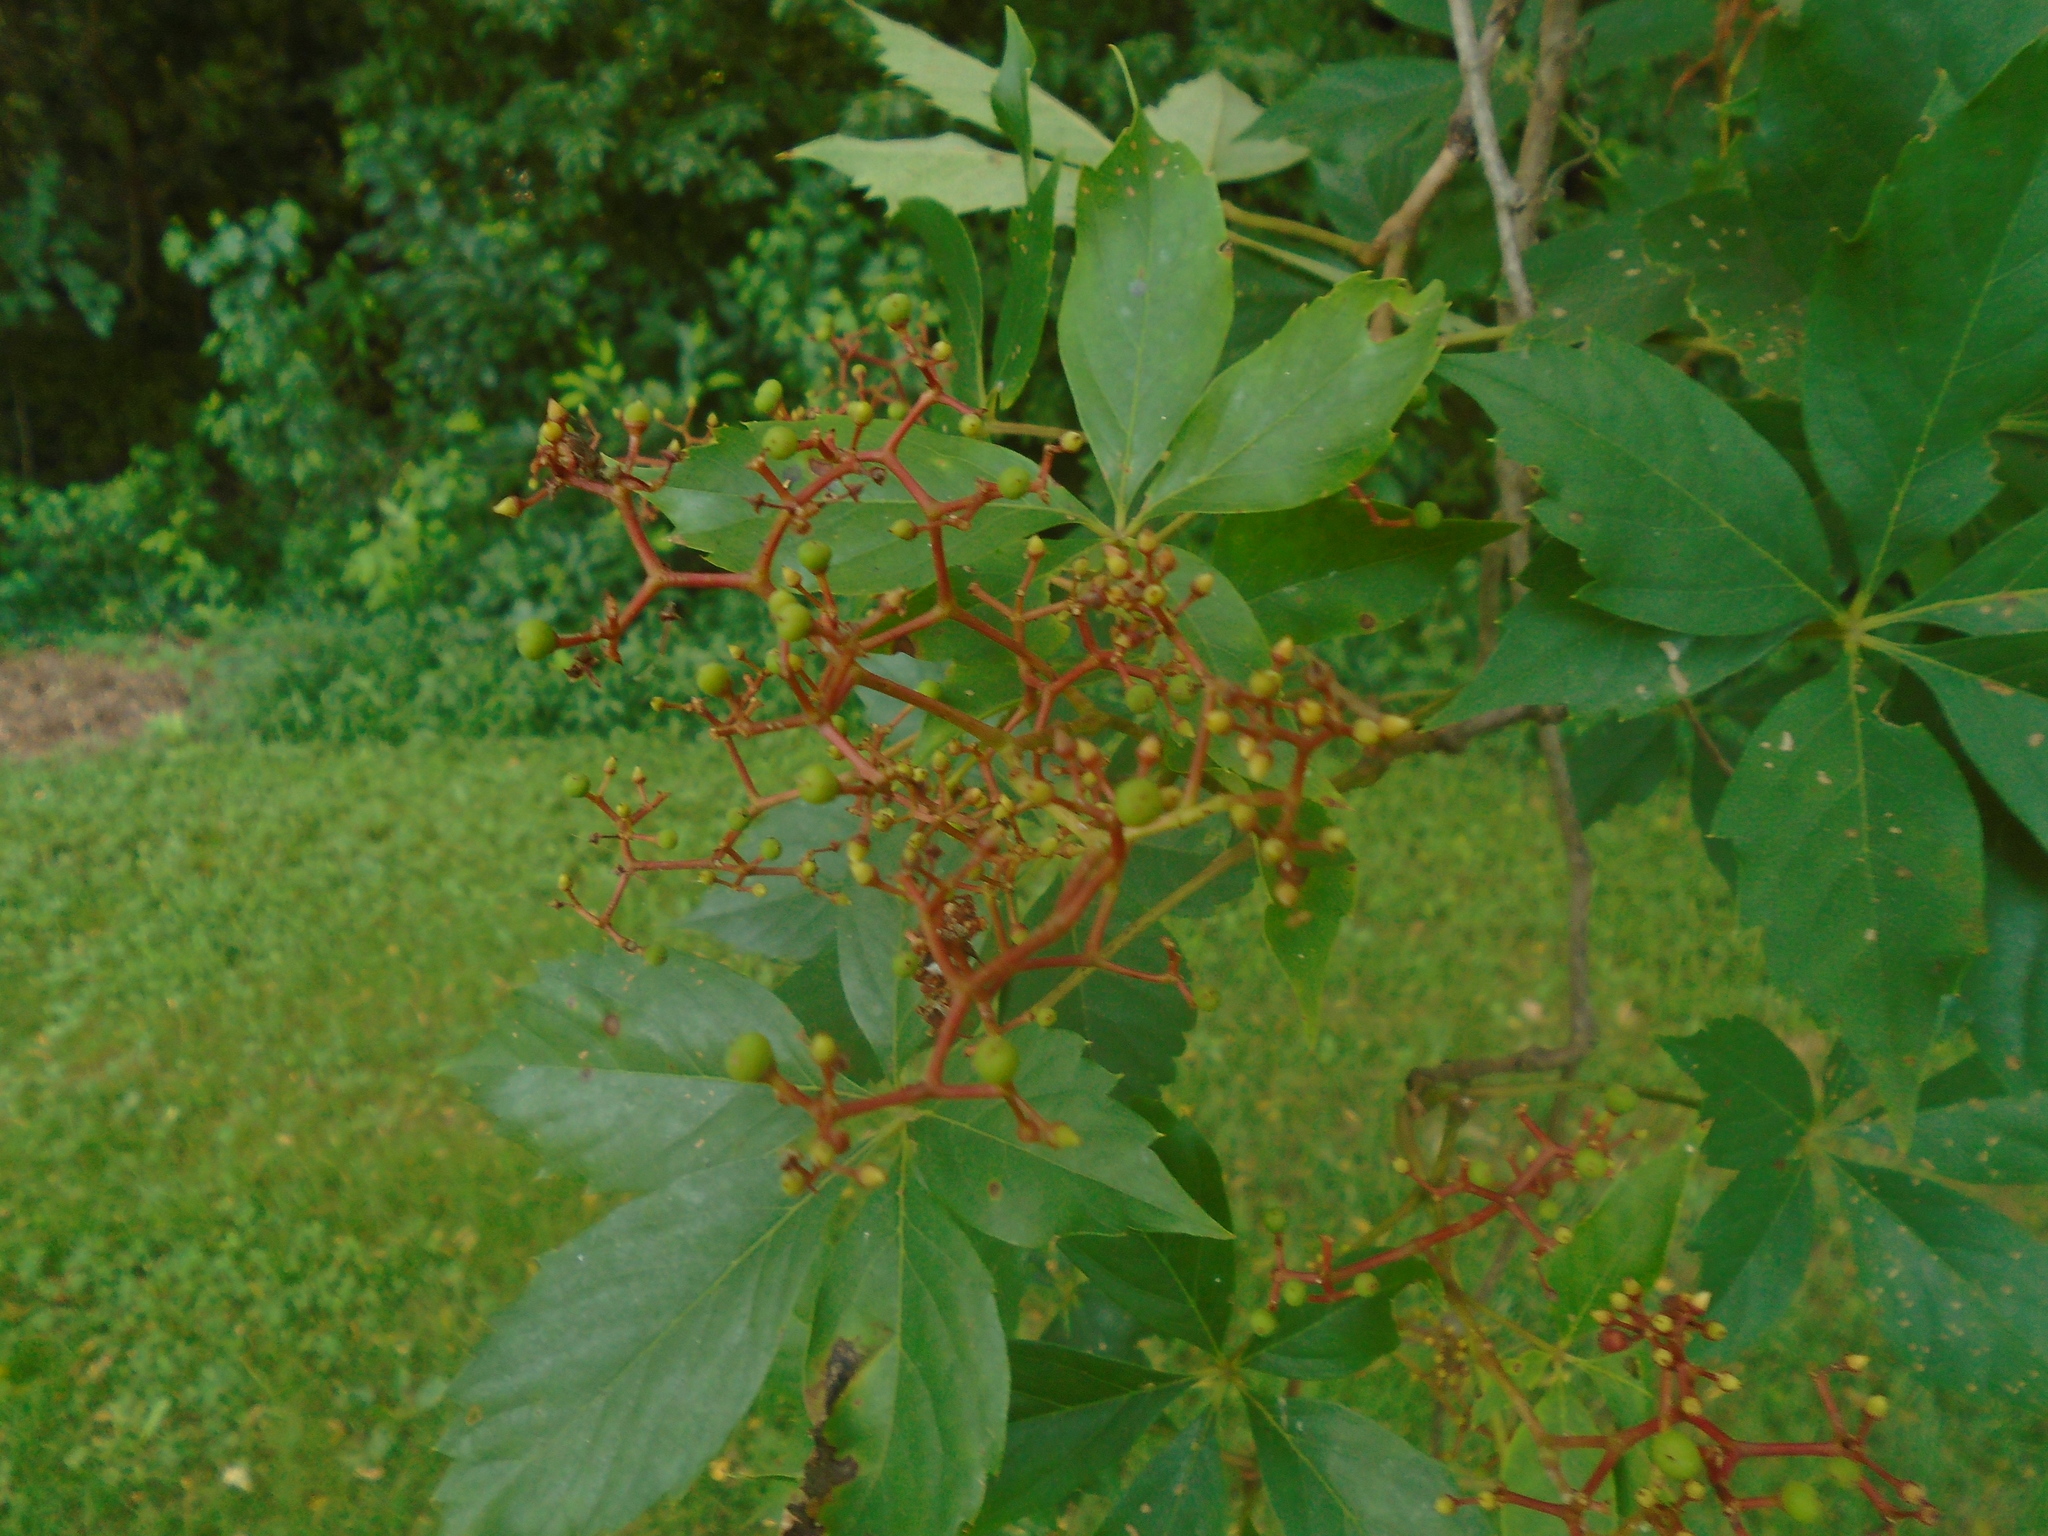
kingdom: Plantae
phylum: Tracheophyta
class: Magnoliopsida
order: Vitales
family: Vitaceae
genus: Parthenocissus
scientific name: Parthenocissus quinquefolia
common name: Virginia-creeper
